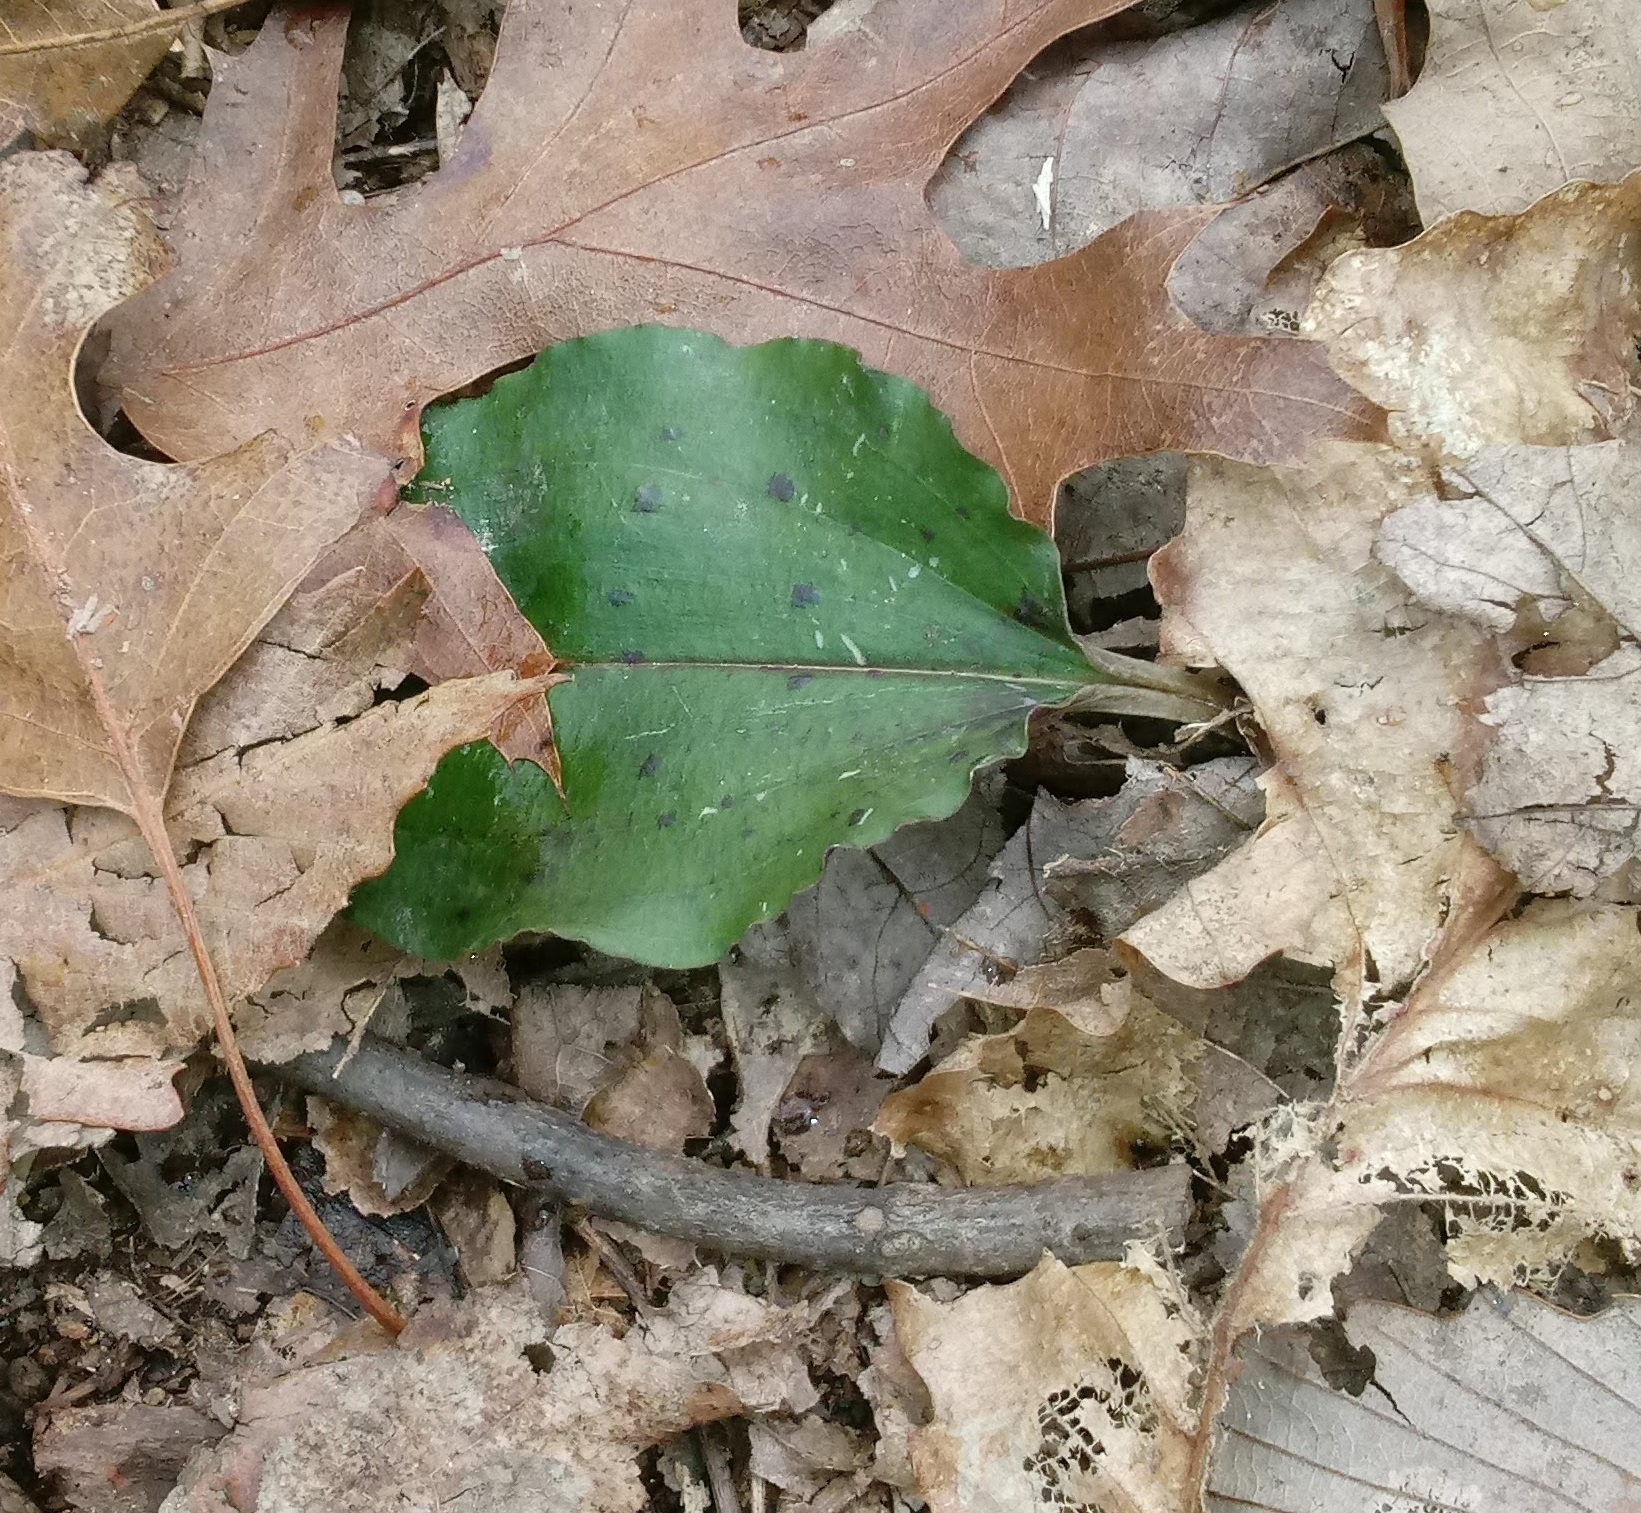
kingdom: Plantae
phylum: Tracheophyta
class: Liliopsida
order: Asparagales
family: Orchidaceae
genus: Tipularia
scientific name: Tipularia discolor
